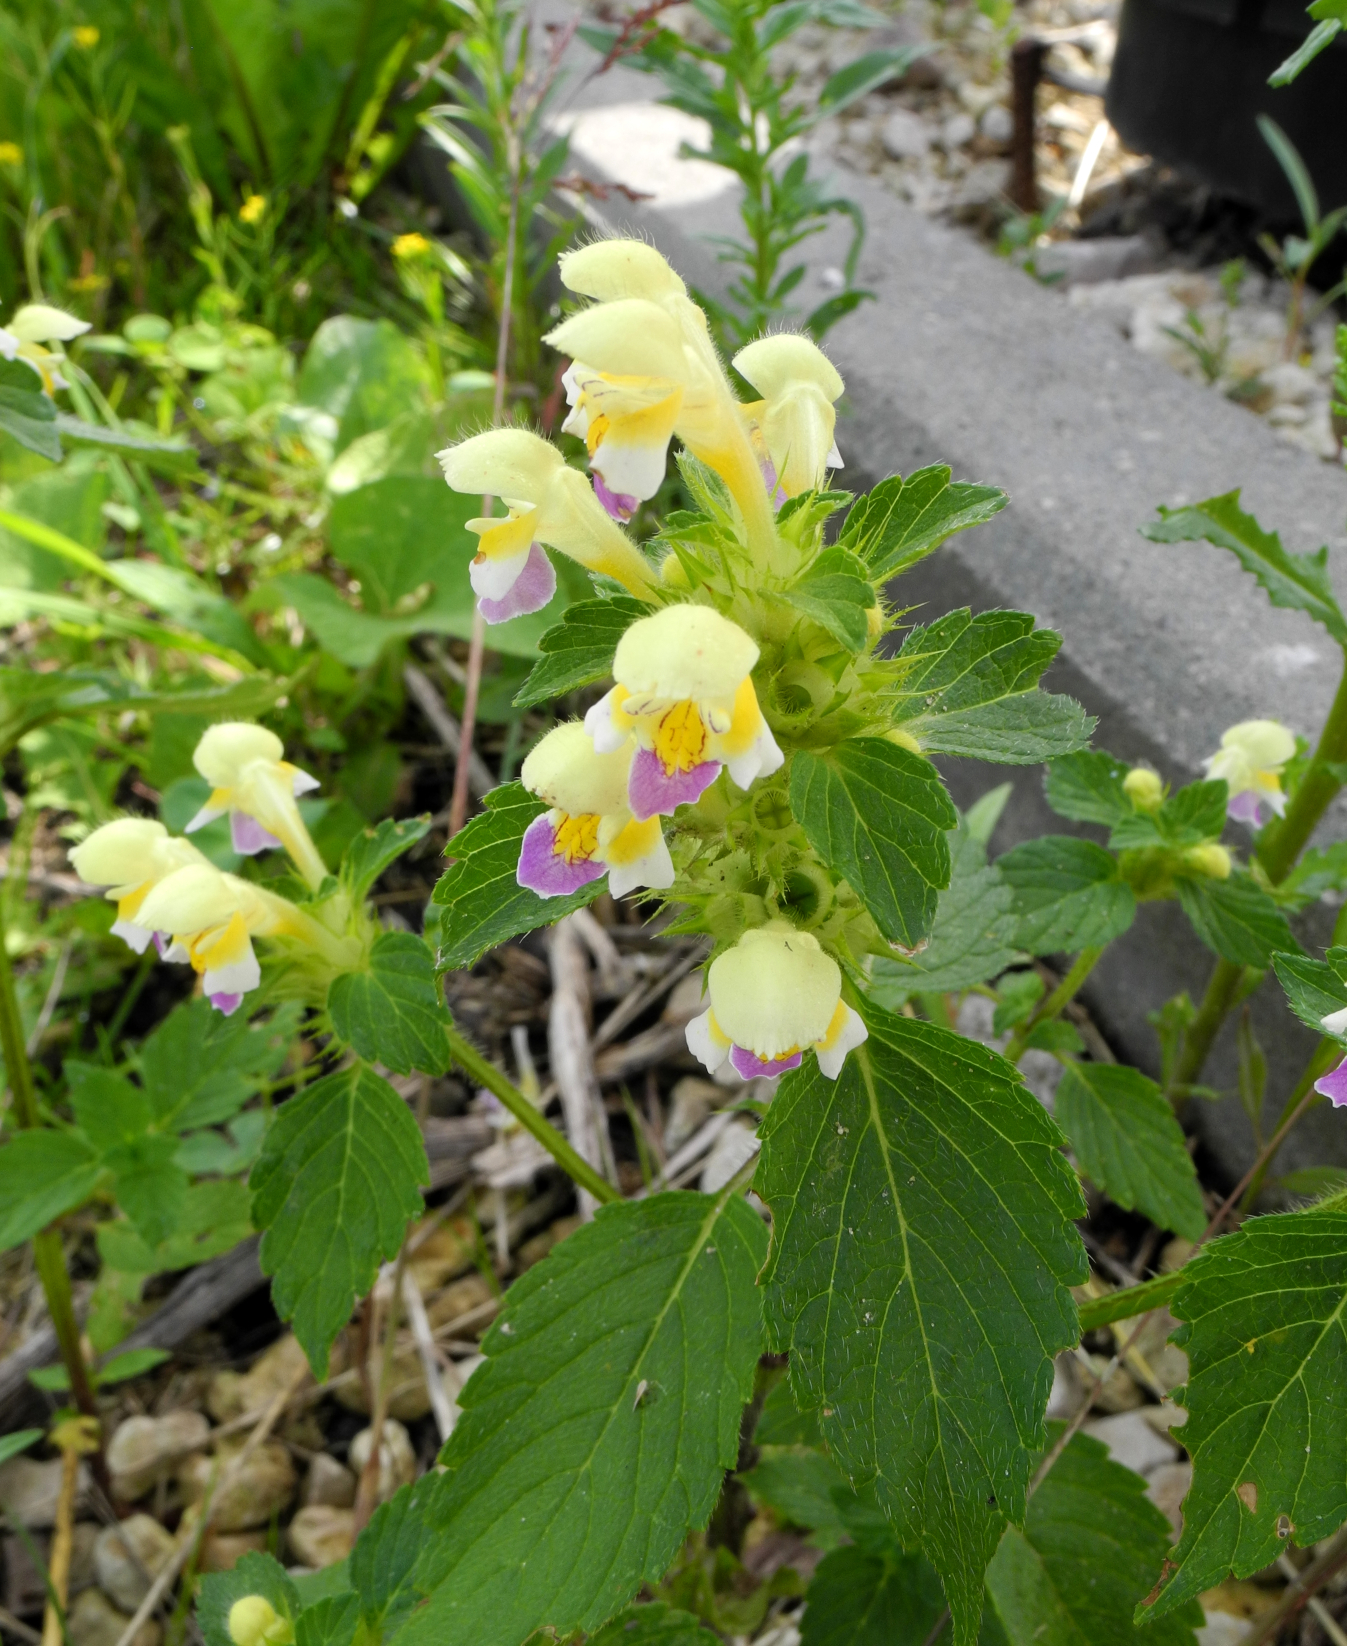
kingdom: Plantae
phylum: Tracheophyta
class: Magnoliopsida
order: Lamiales
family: Lamiaceae
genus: Galeopsis
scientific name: Galeopsis speciosa
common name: Large-flowered hemp-nettle
